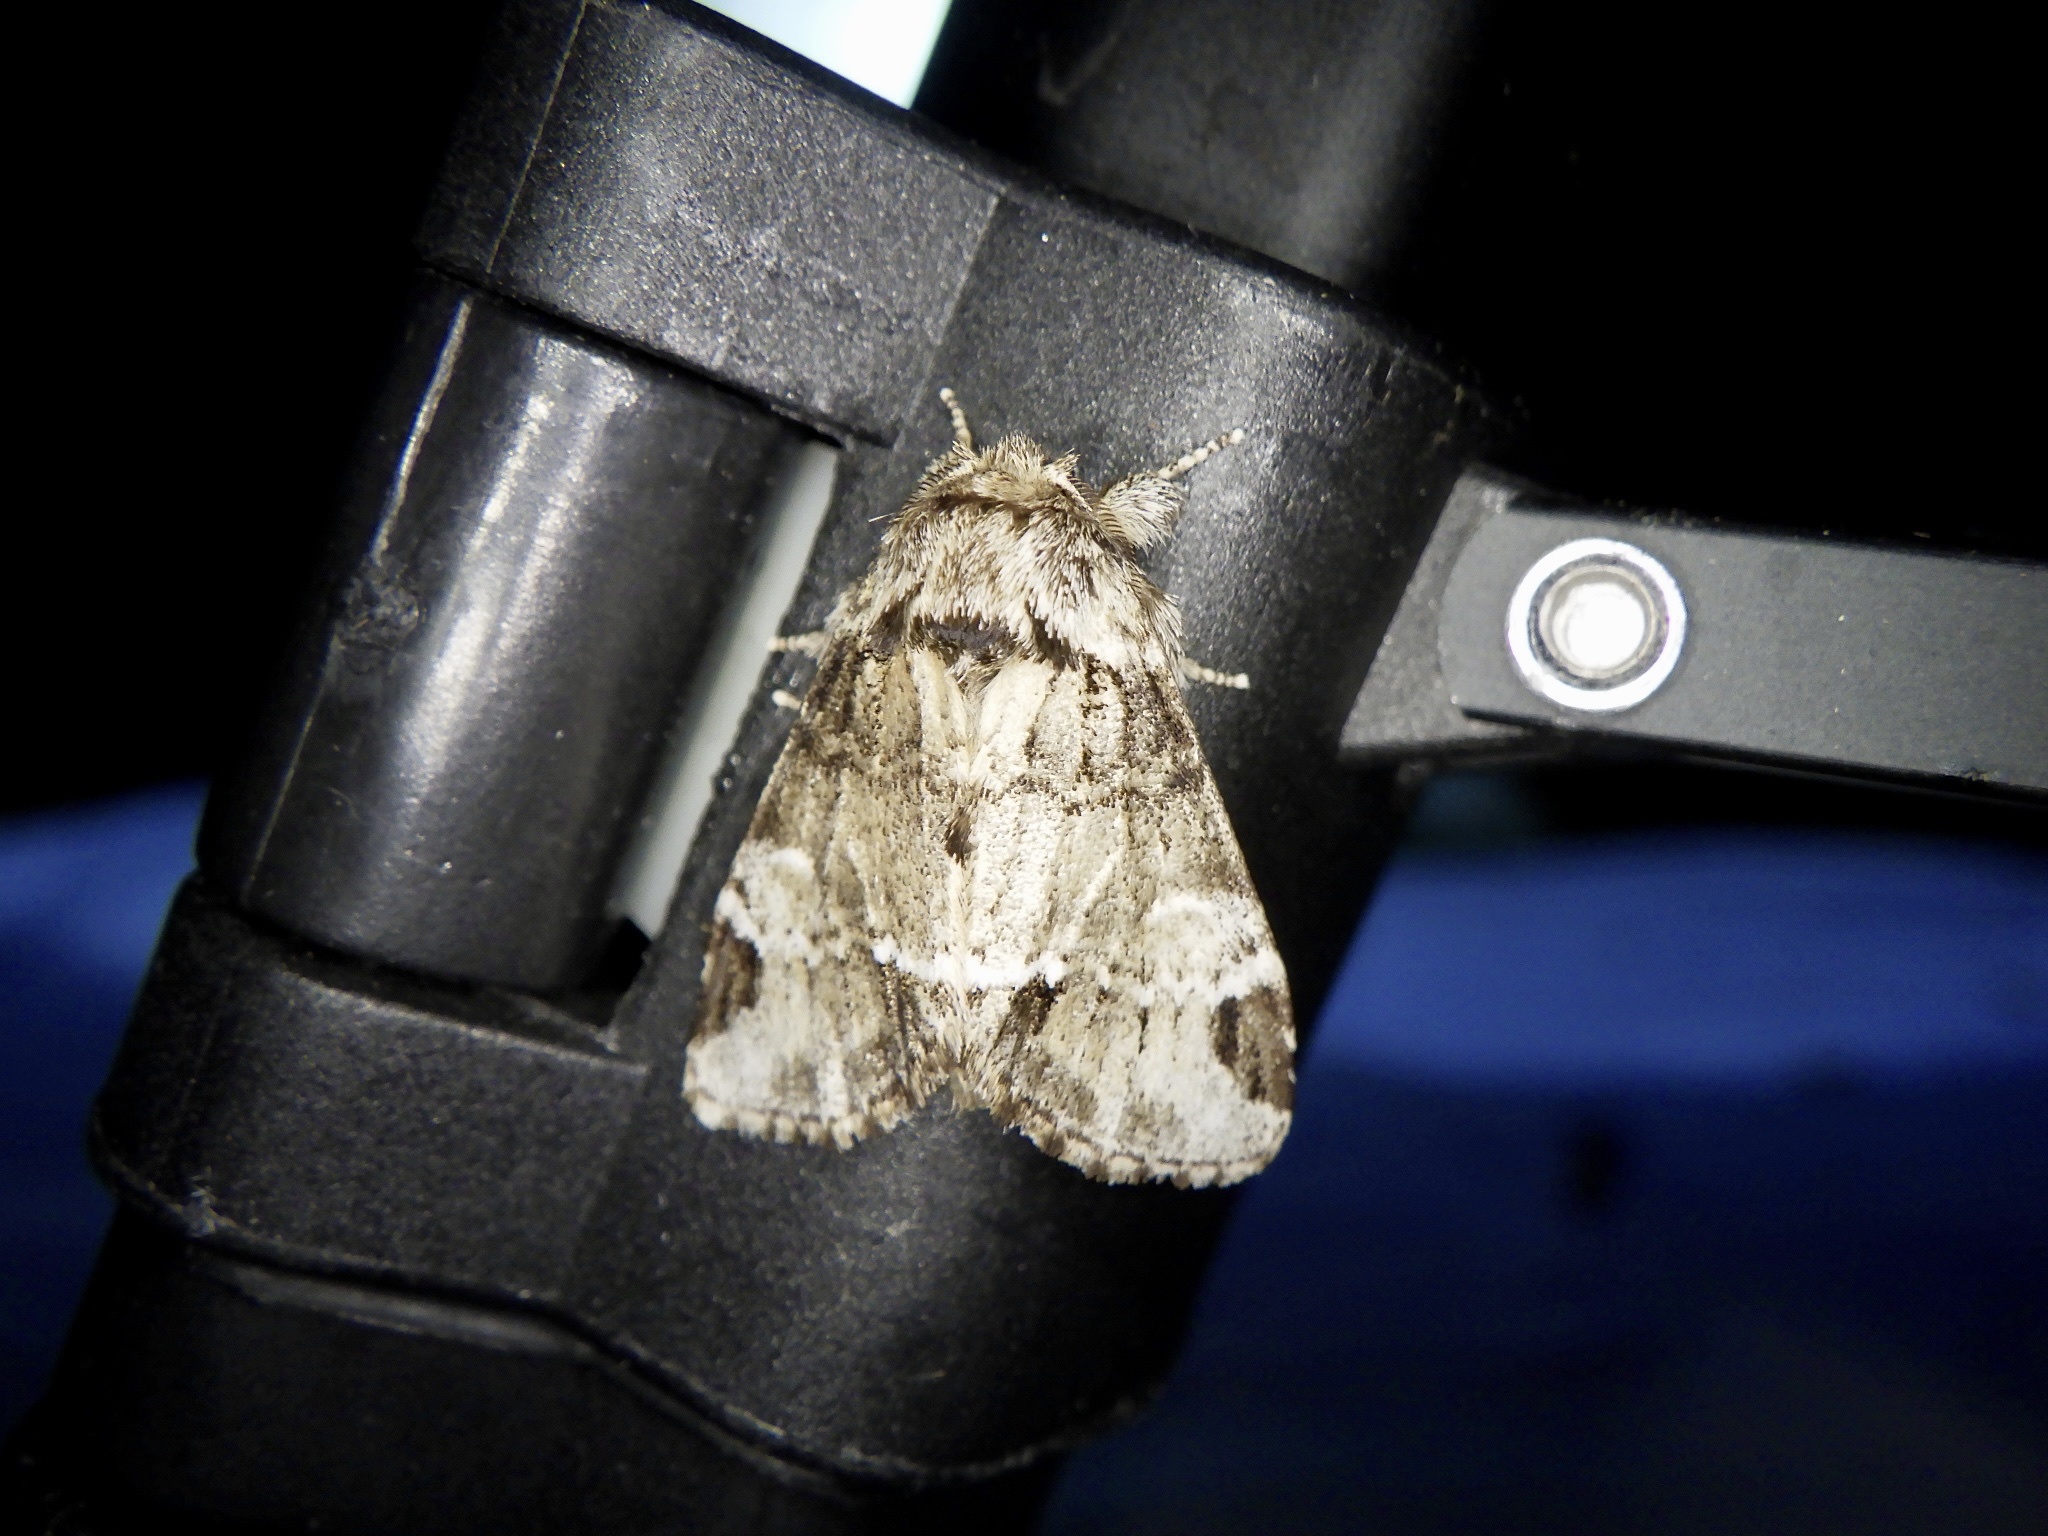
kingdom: Animalia
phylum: Arthropoda
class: Insecta
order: Lepidoptera
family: Notodontidae
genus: Drymonia
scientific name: Drymonia japonica
